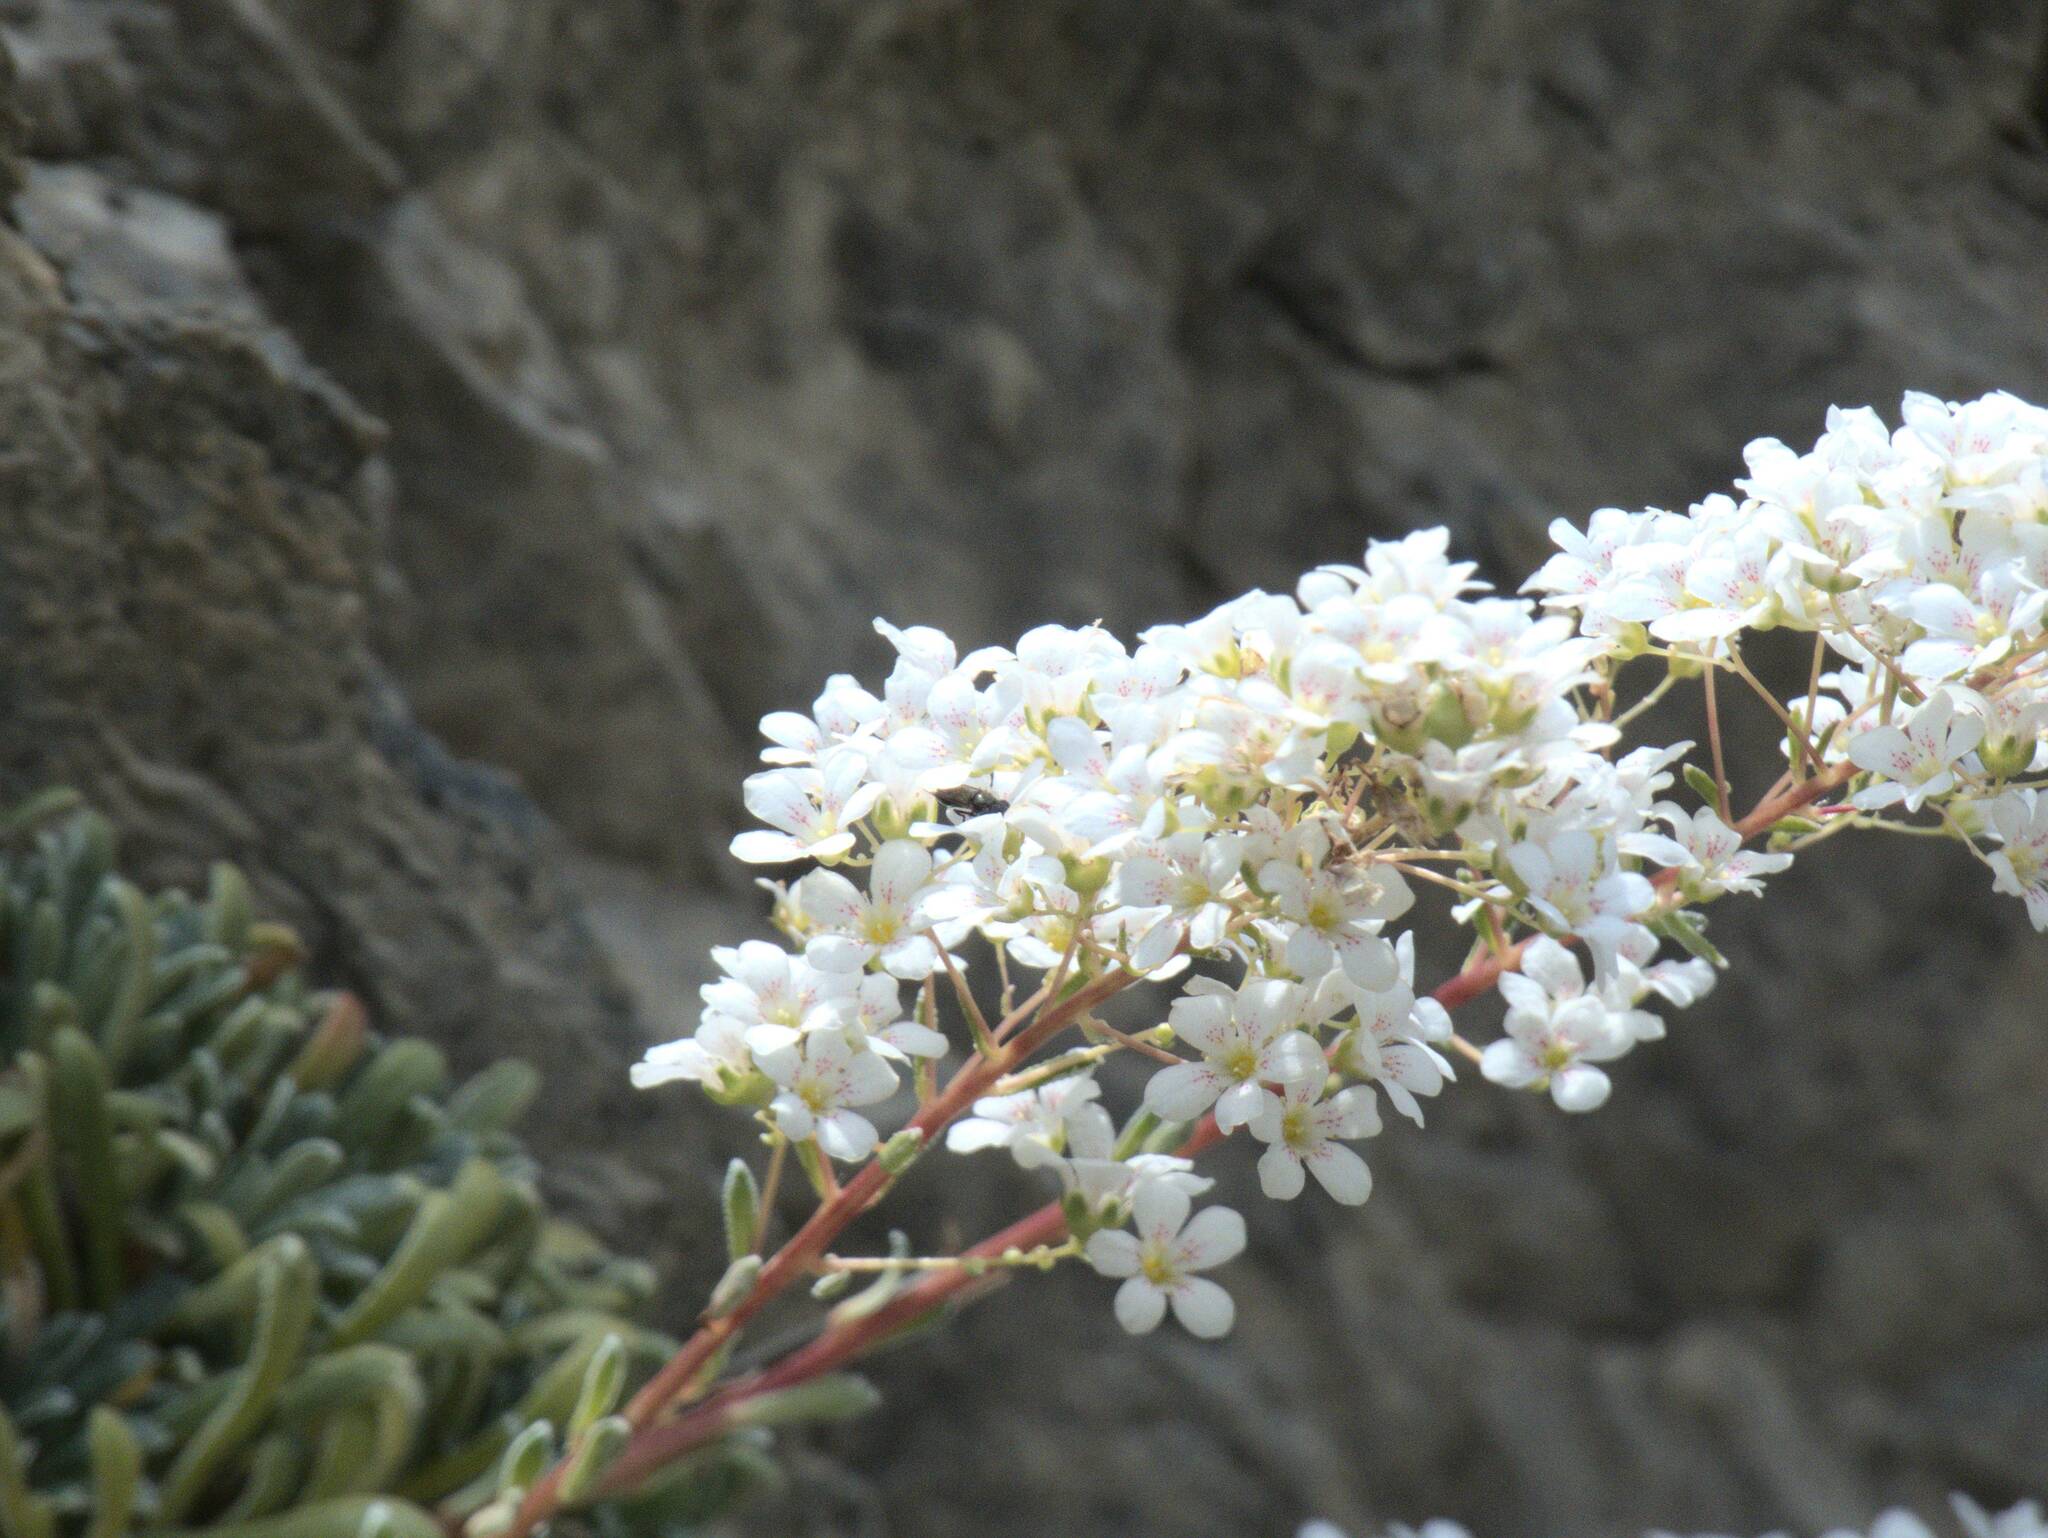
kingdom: Plantae
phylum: Tracheophyta
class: Magnoliopsida
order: Saxifragales
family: Saxifragaceae
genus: Saxifraga
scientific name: Saxifraga callosa
